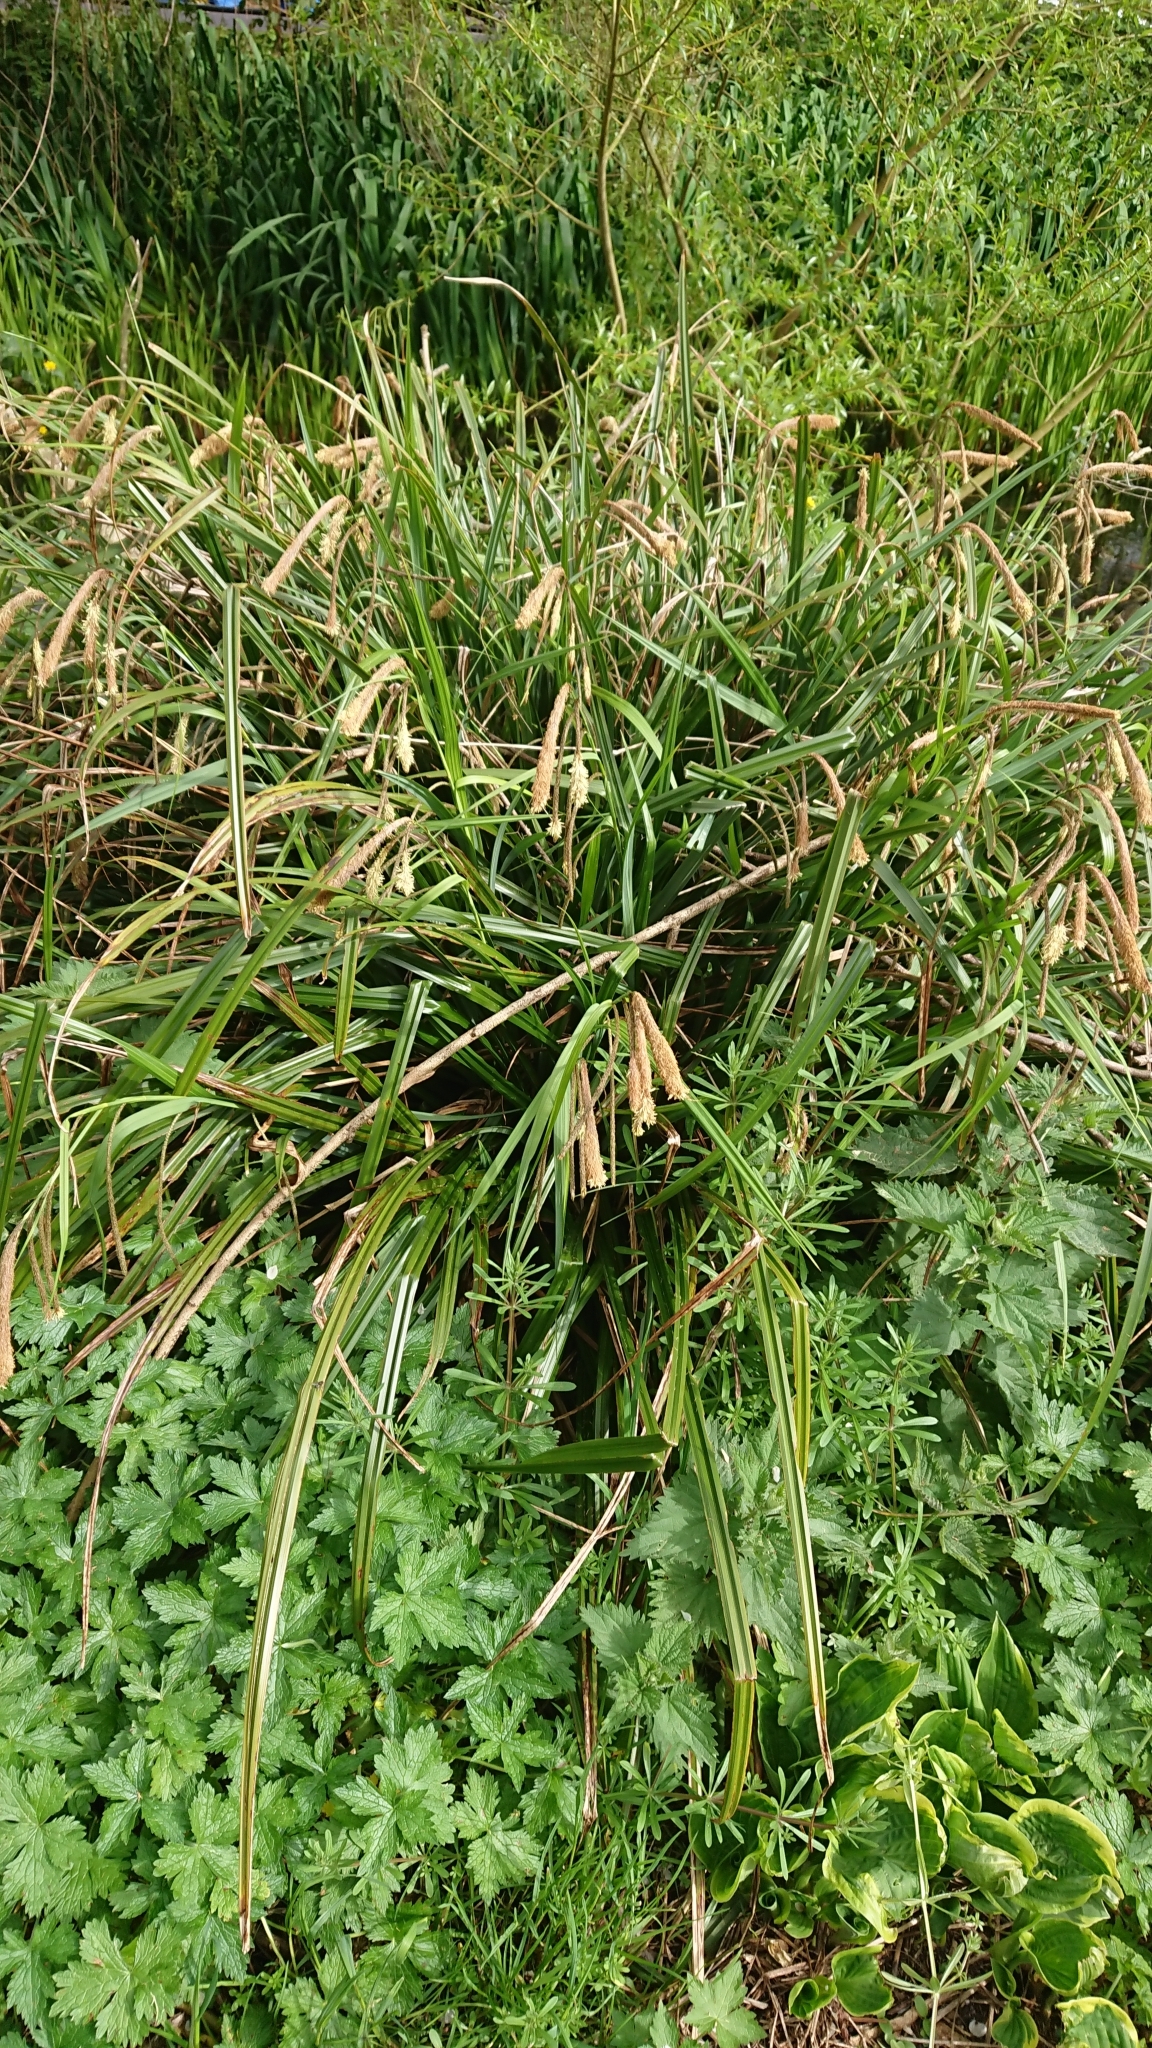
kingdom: Plantae
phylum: Tracheophyta
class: Liliopsida
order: Poales
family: Cyperaceae
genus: Carex
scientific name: Carex pendula
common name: Pendulous sedge
